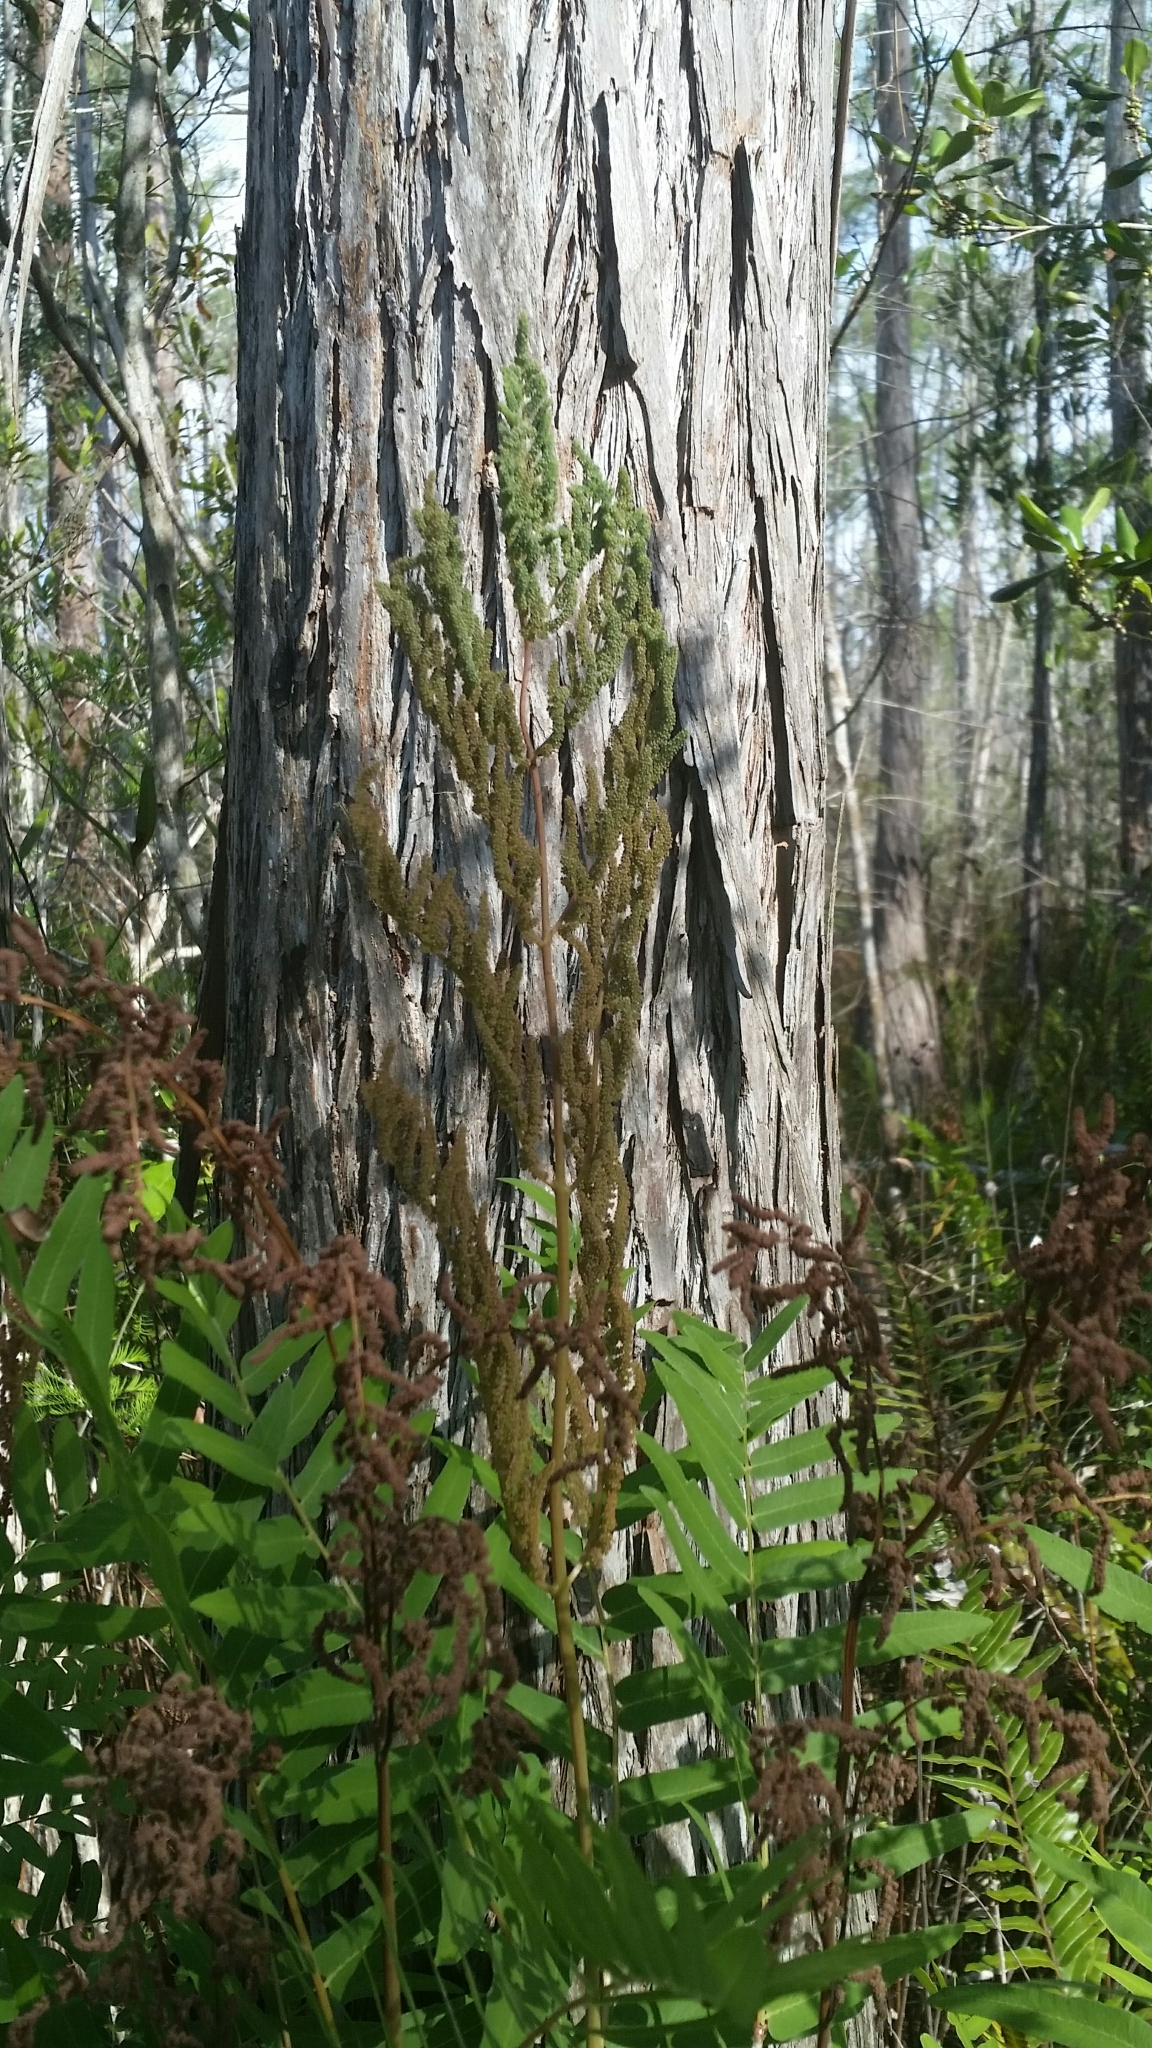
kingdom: Plantae
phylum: Tracheophyta
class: Polypodiopsida
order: Osmundales
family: Osmundaceae
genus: Osmunda
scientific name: Osmunda spectabilis
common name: American royal fern
